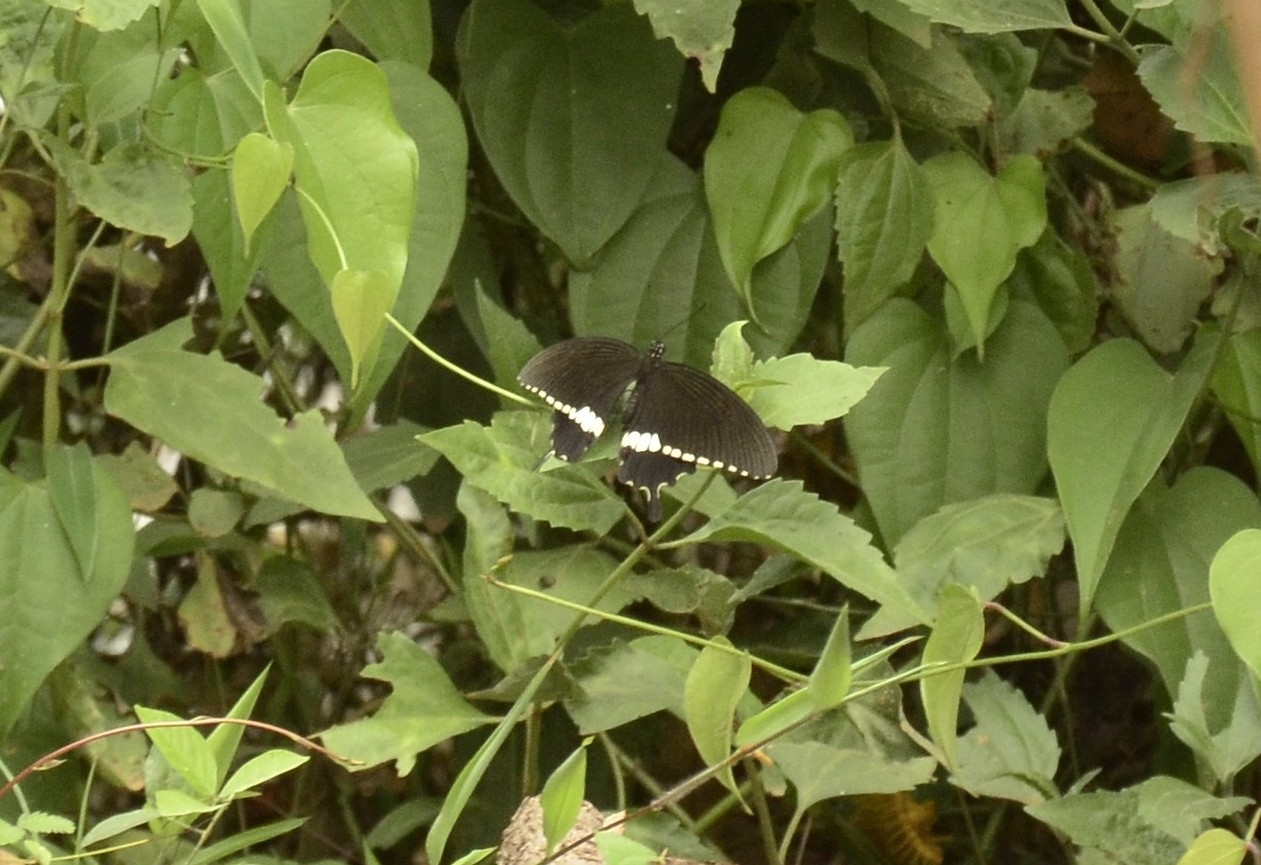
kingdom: Animalia
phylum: Arthropoda
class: Insecta
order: Lepidoptera
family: Papilionidae
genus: Papilio
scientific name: Papilio polytes
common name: Common mormon
